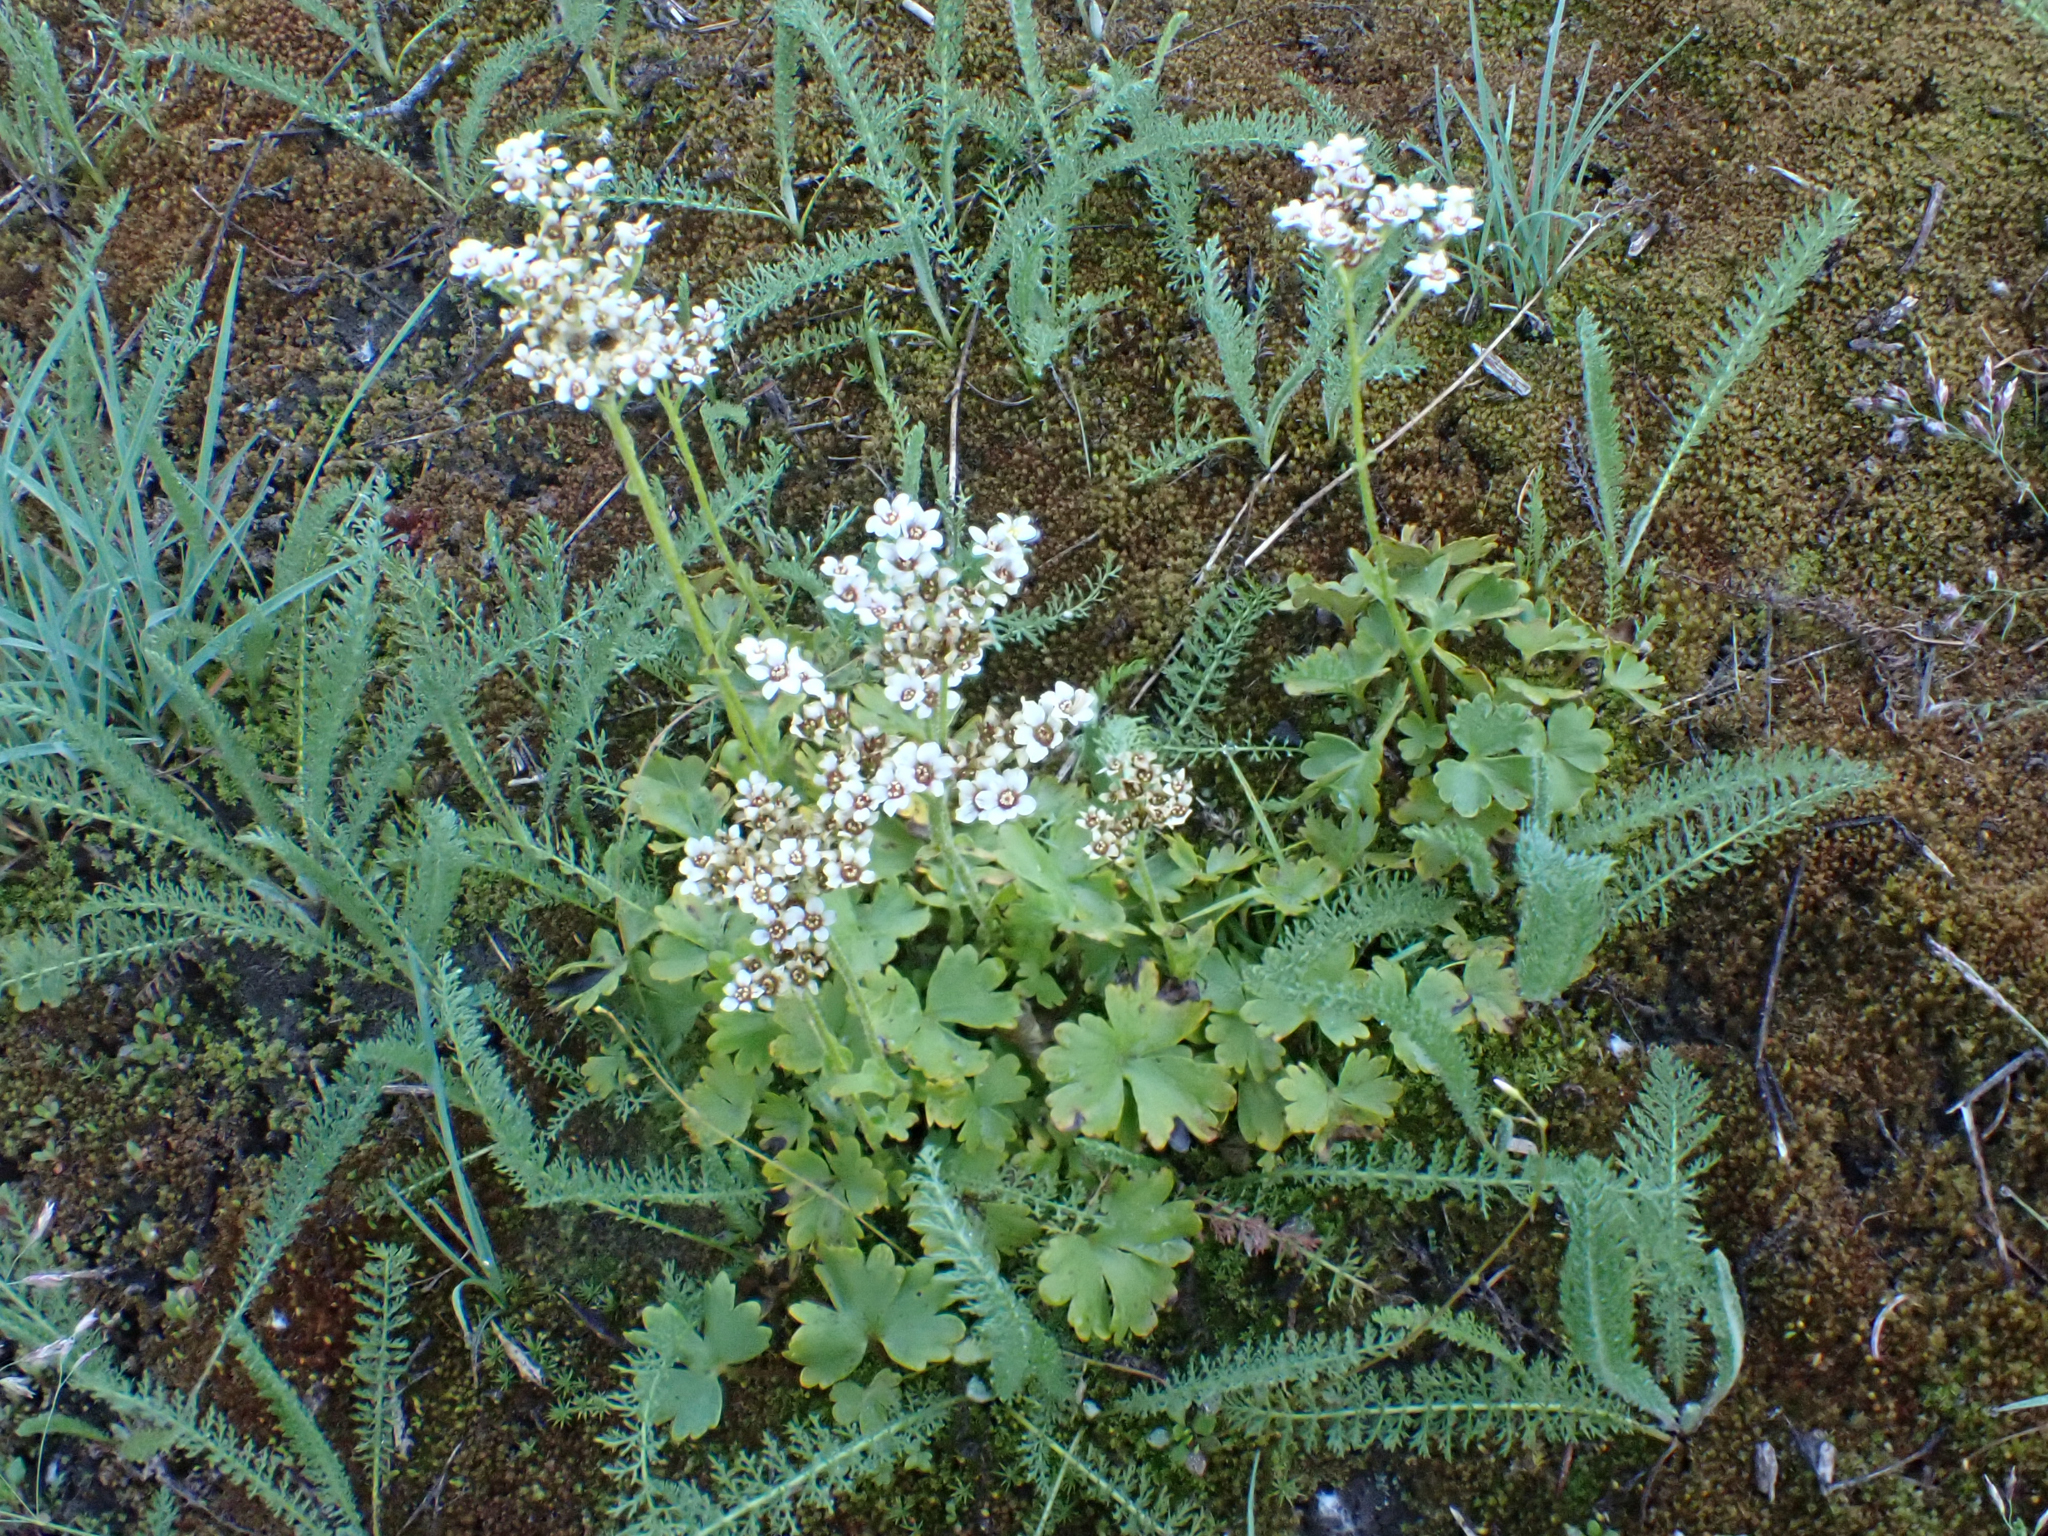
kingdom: Plantae
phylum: Tracheophyta
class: Magnoliopsida
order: Saxifragales
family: Saxifragaceae
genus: Hemieva
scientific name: Hemieva ranunculifolia
